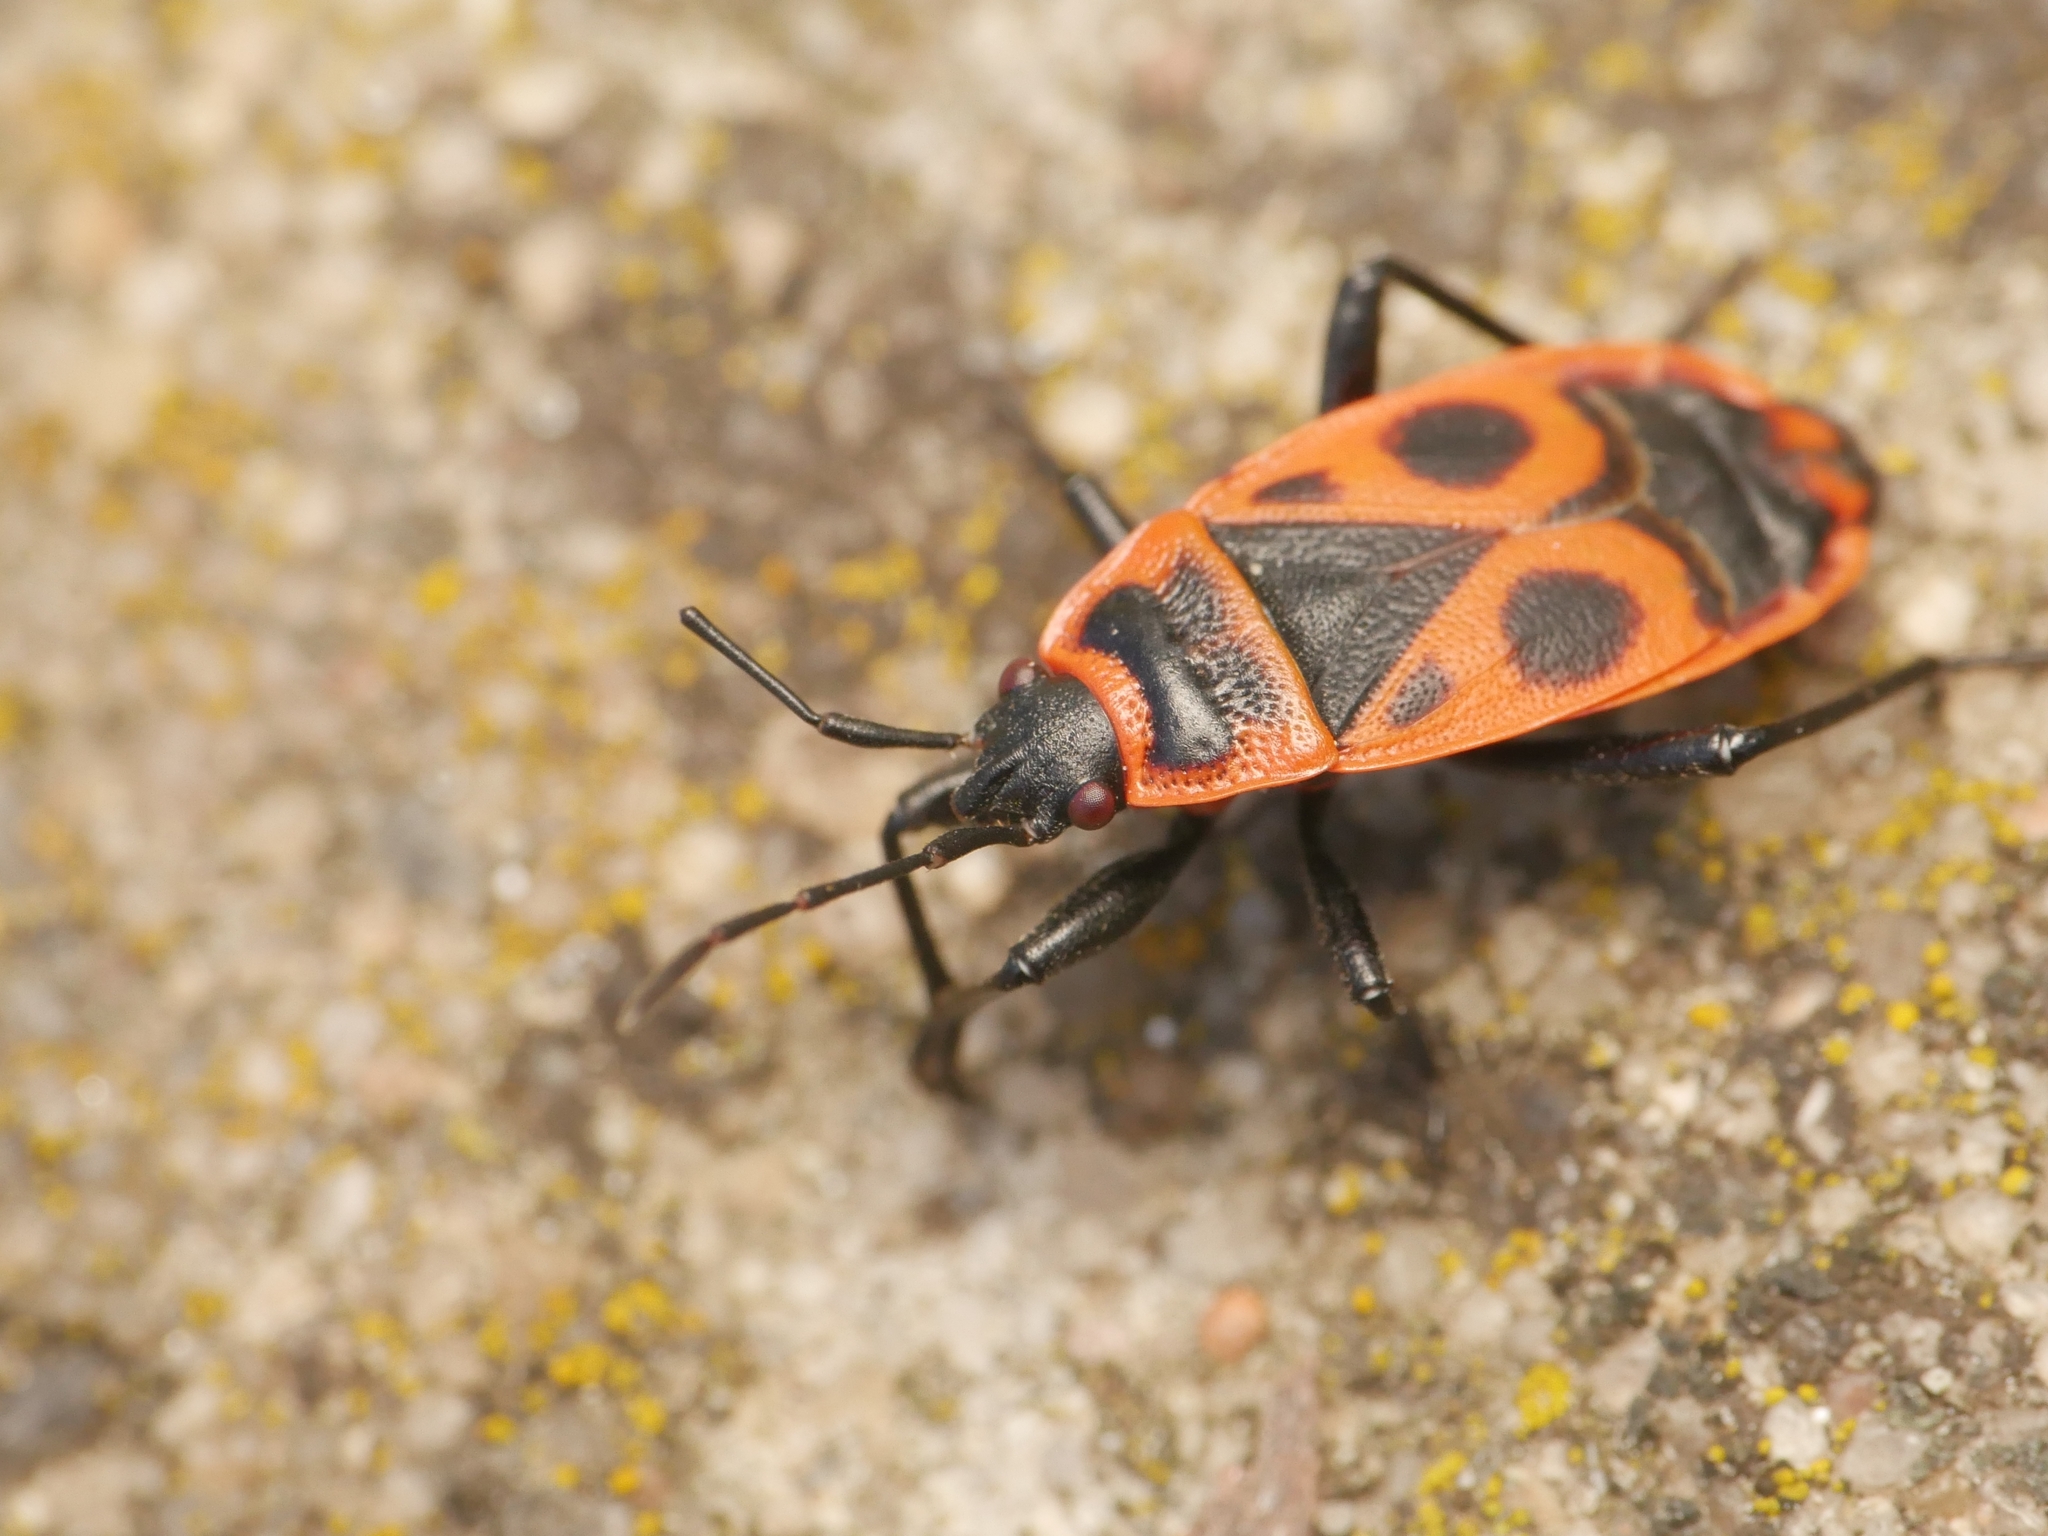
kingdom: Animalia
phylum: Arthropoda
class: Insecta
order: Hemiptera
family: Pyrrhocoridae
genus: Pyrrhocoris
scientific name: Pyrrhocoris apterus
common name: Firebug
